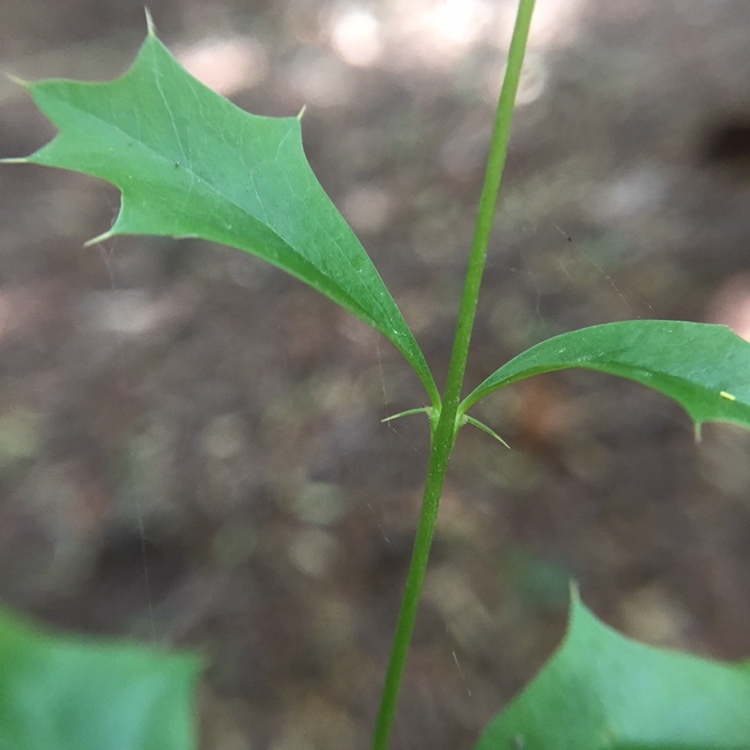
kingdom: Plantae
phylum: Tracheophyta
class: Magnoliopsida
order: Ranunculales
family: Berberidaceae
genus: Berberis
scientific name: Berberis ruscifolia
